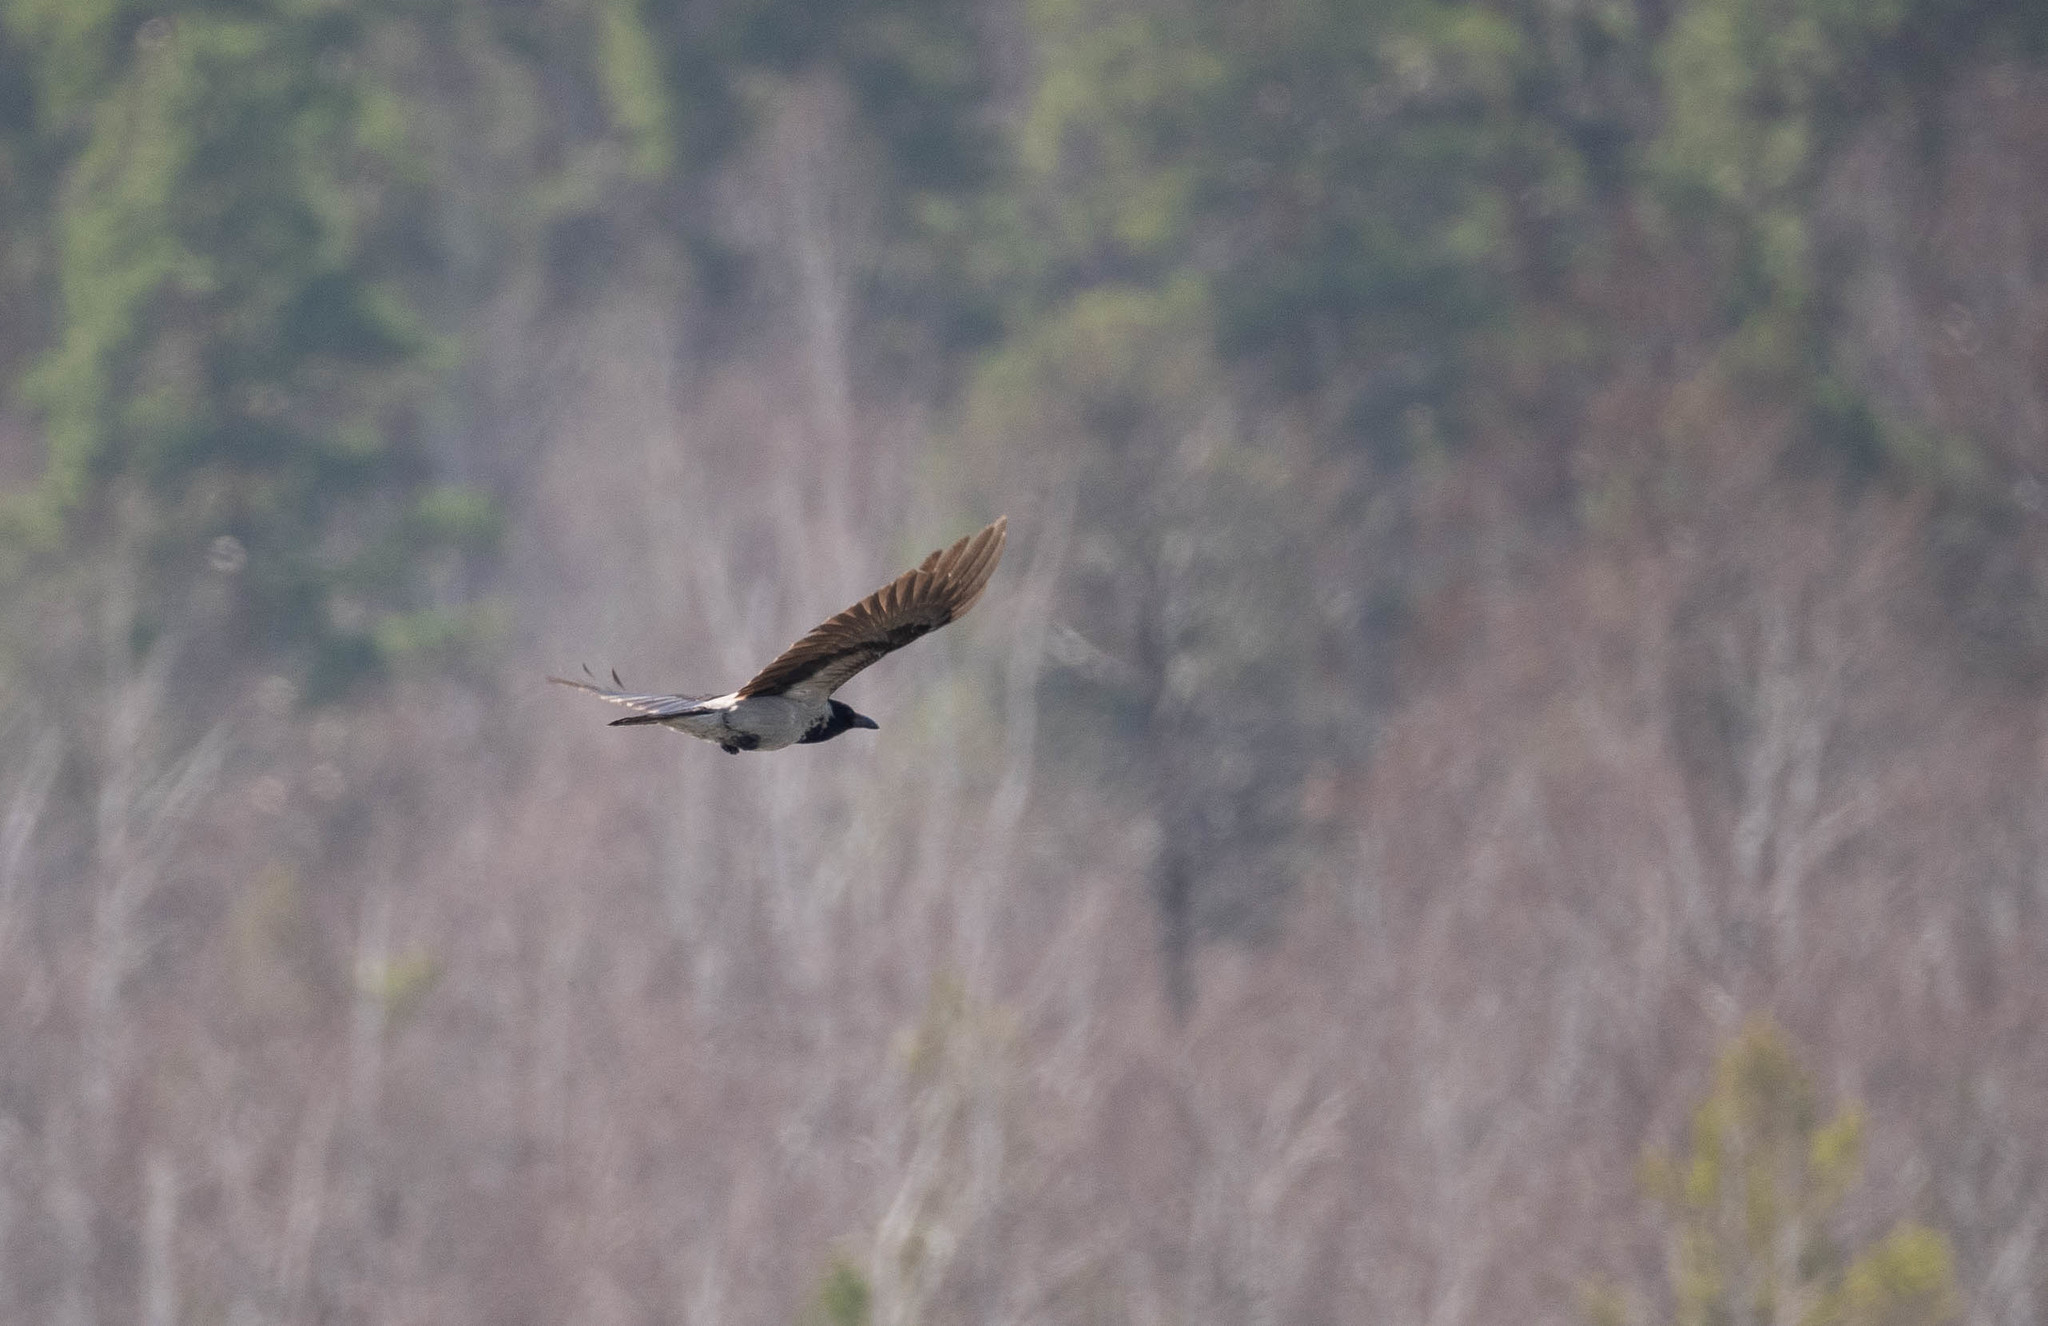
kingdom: Animalia
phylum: Chordata
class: Aves
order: Passeriformes
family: Corvidae
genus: Corvus
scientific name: Corvus cornix
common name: Hooded crow
